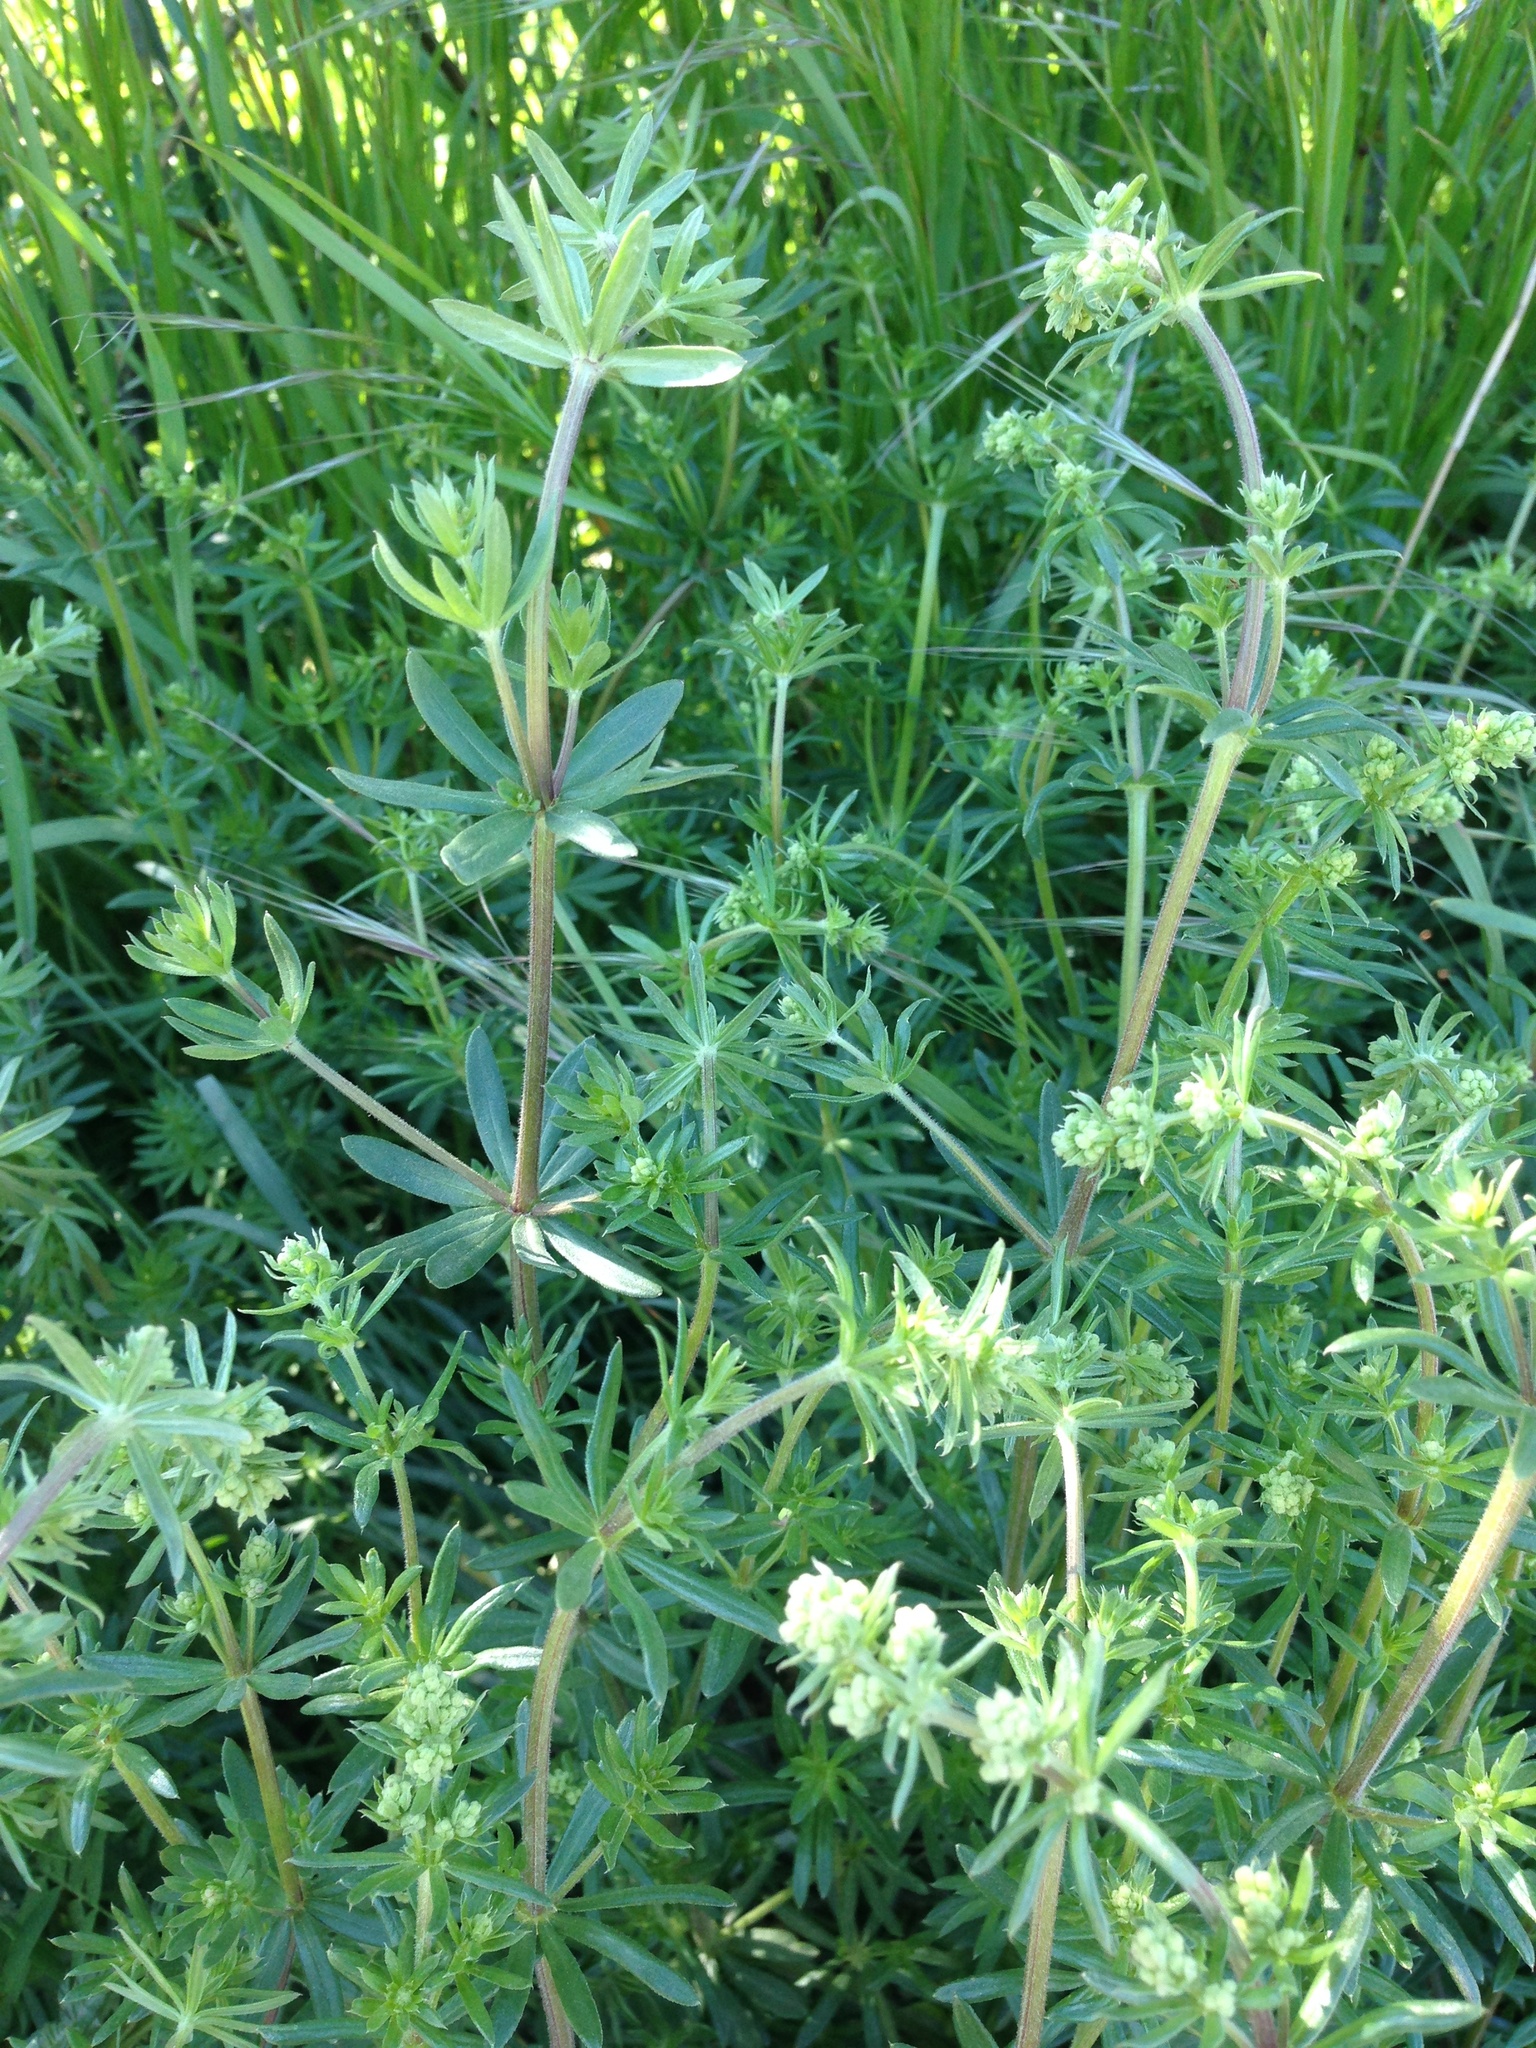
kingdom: Plantae
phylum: Tracheophyta
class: Magnoliopsida
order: Gentianales
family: Rubiaceae
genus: Galium
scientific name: Galium aparine
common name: Cleavers
